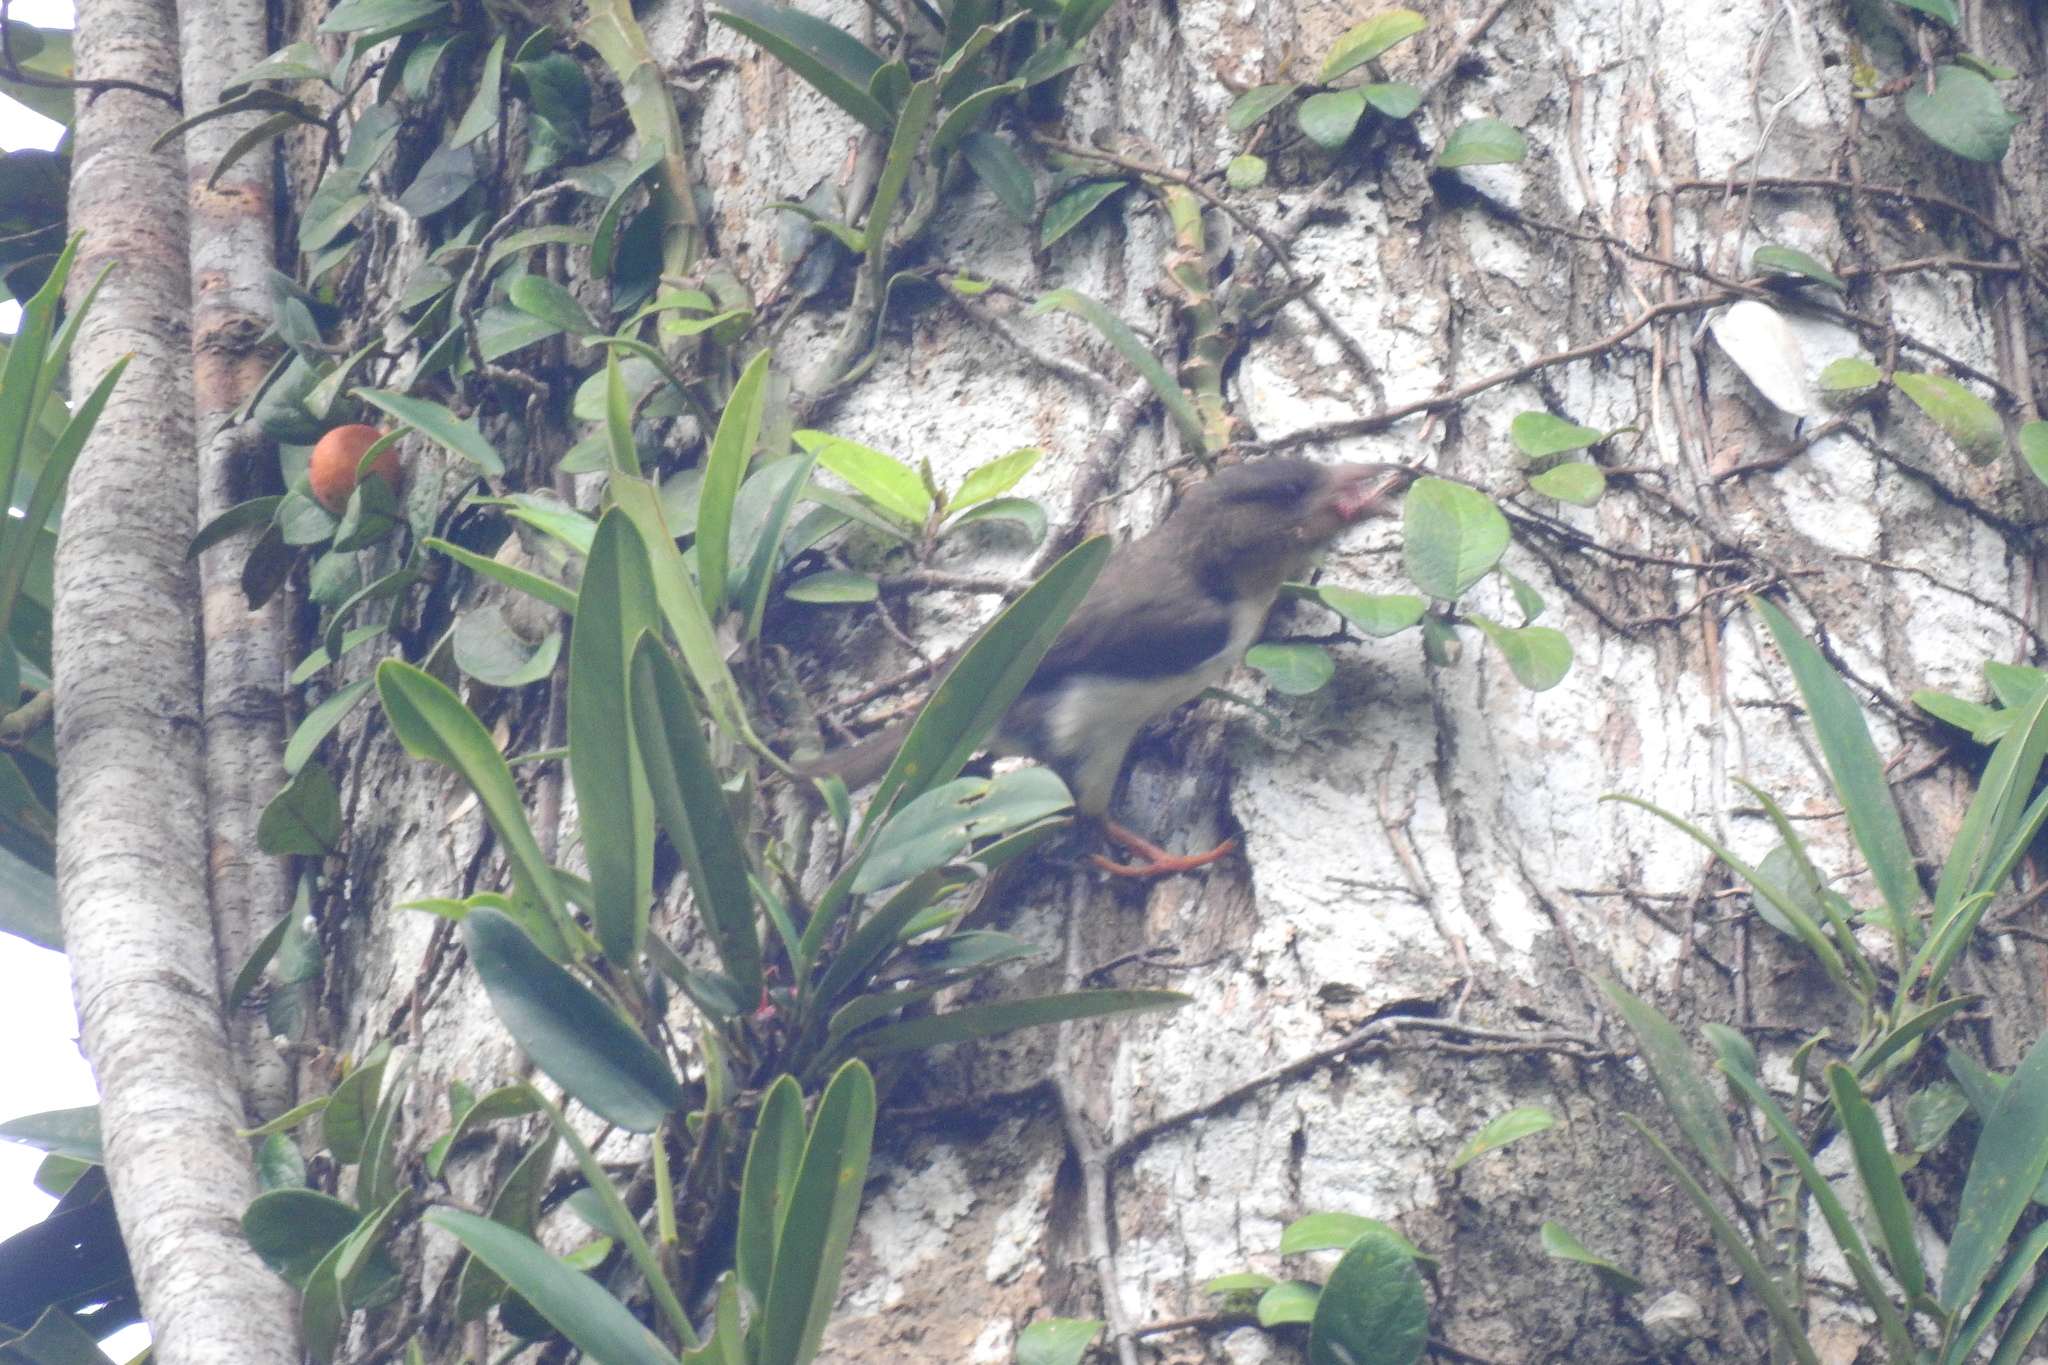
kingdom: Animalia
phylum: Chordata
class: Aves
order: Piciformes
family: Megalaimidae
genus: Caloramphus
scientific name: Caloramphus hayii
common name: Sooty barbet
